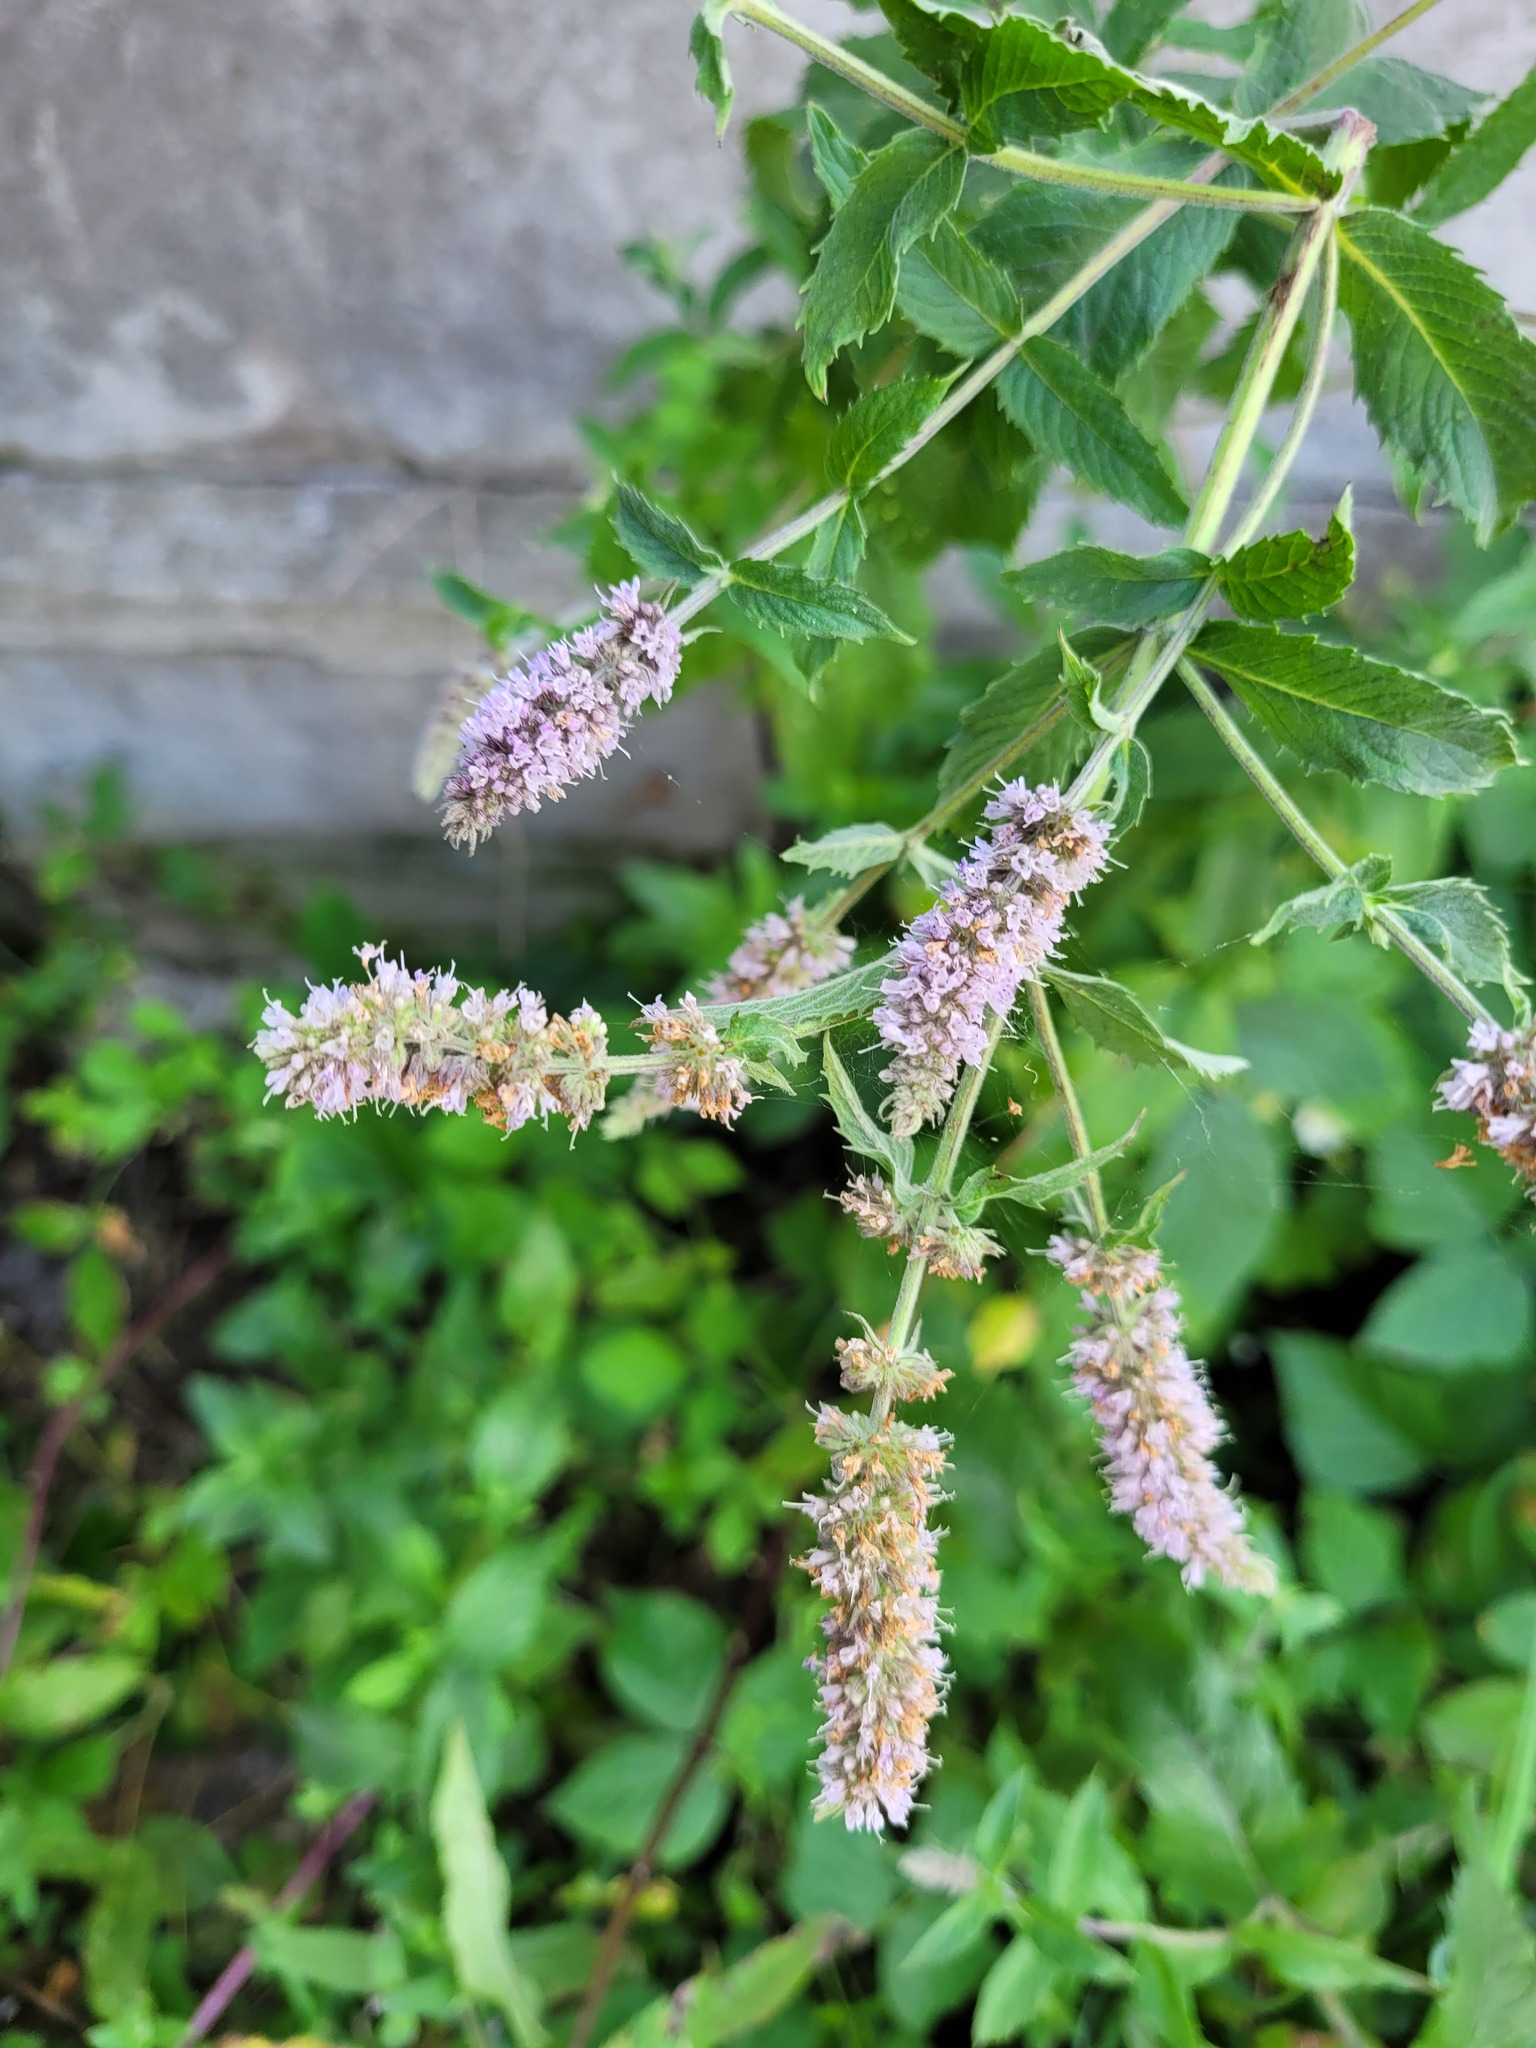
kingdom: Plantae
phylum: Tracheophyta
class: Magnoliopsida
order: Lamiales
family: Lamiaceae
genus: Mentha
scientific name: Mentha longifolia
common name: Horse mint
